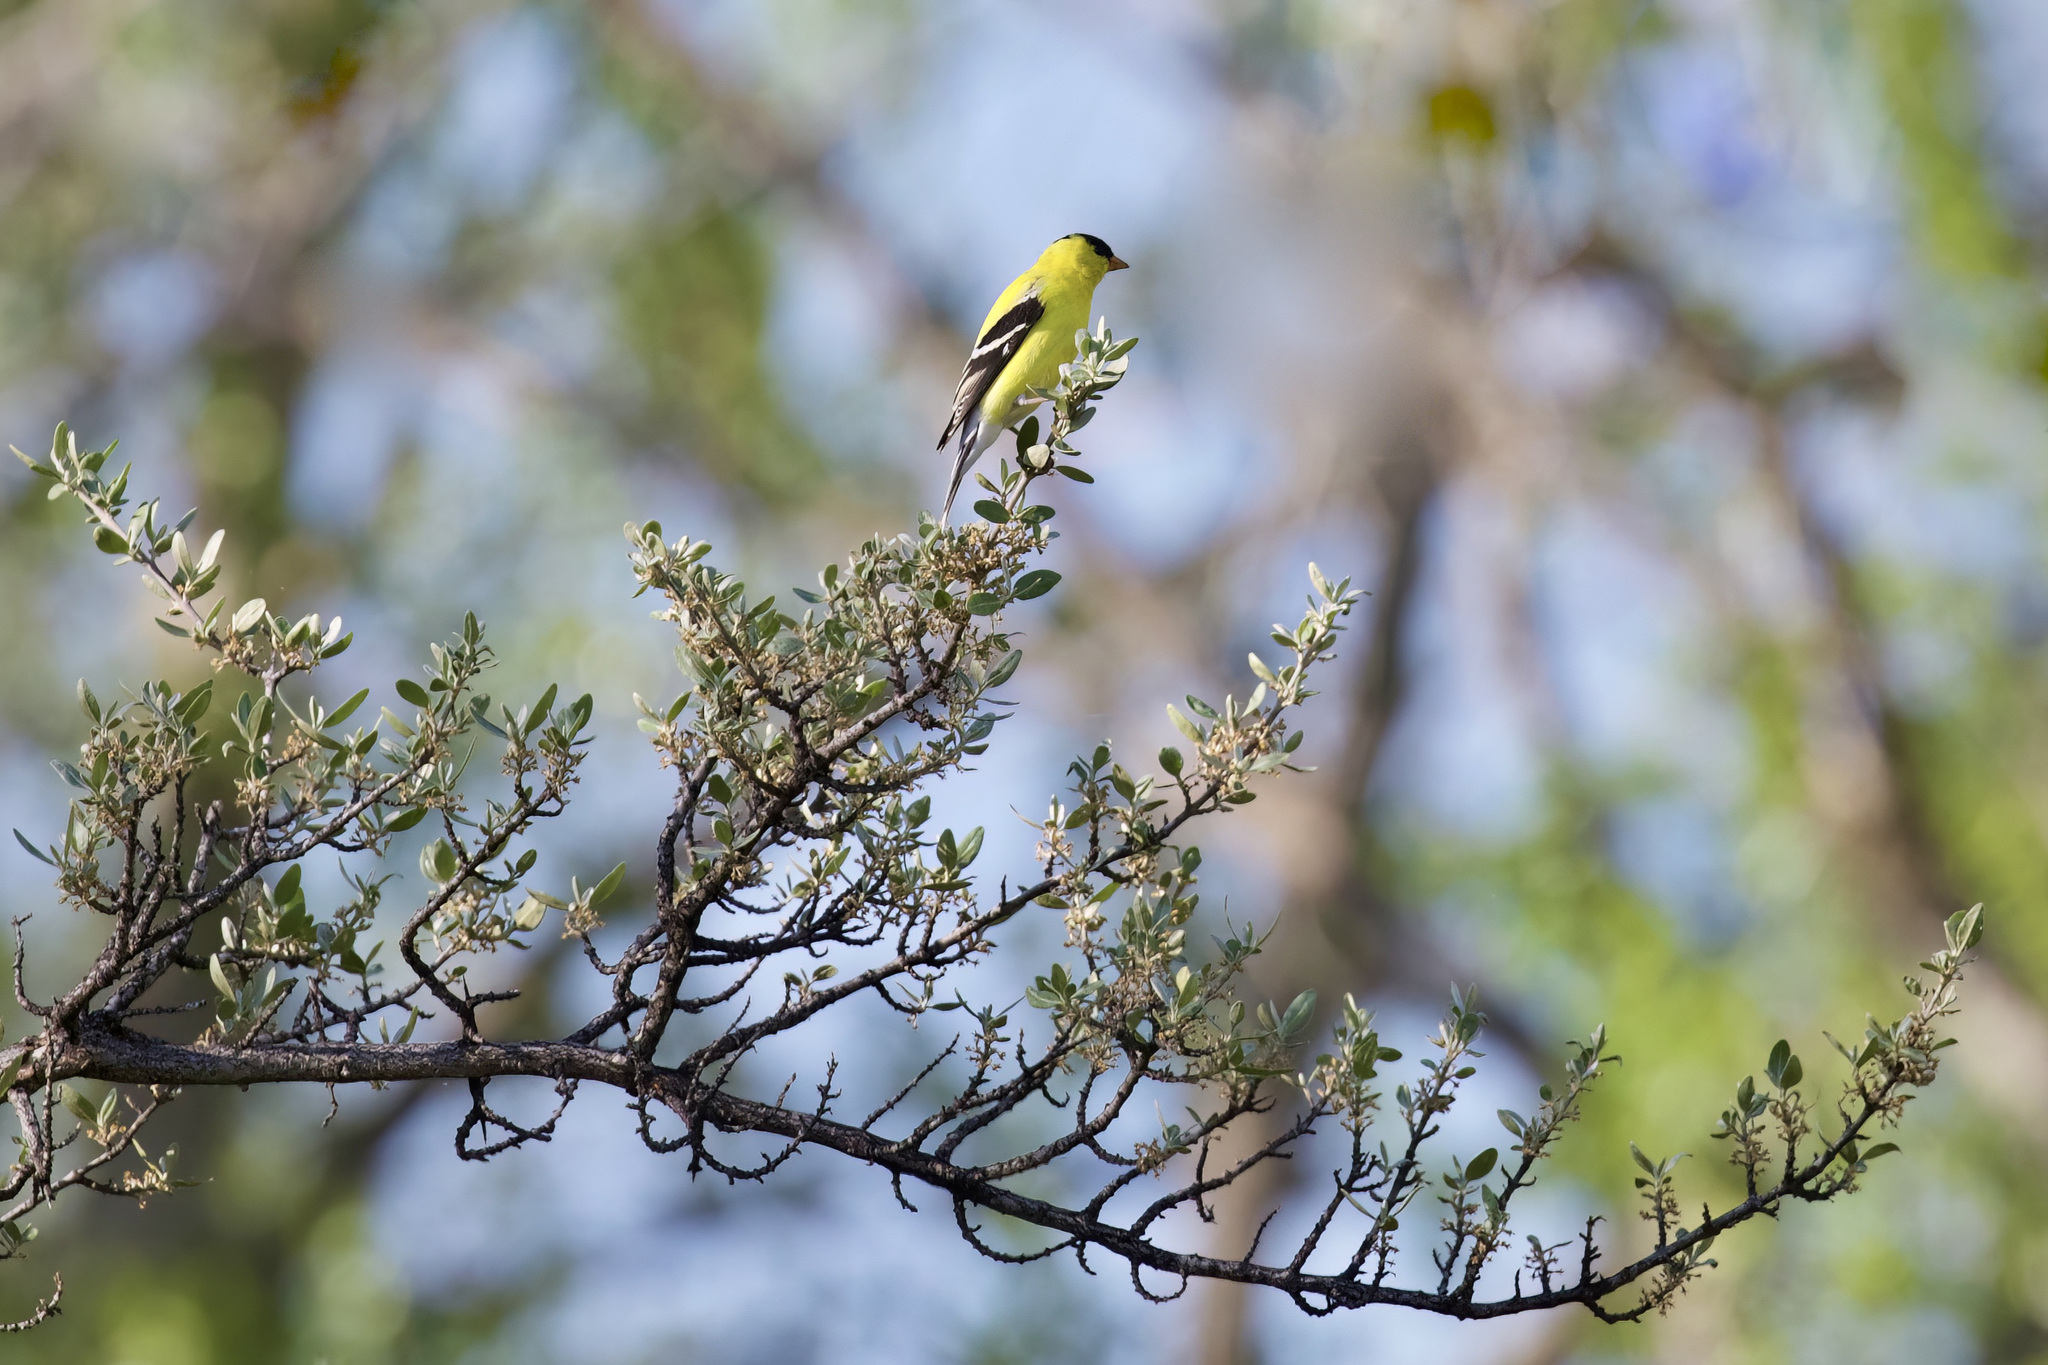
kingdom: Animalia
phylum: Chordata
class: Aves
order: Passeriformes
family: Fringillidae
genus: Spinus
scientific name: Spinus tristis
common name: American goldfinch
